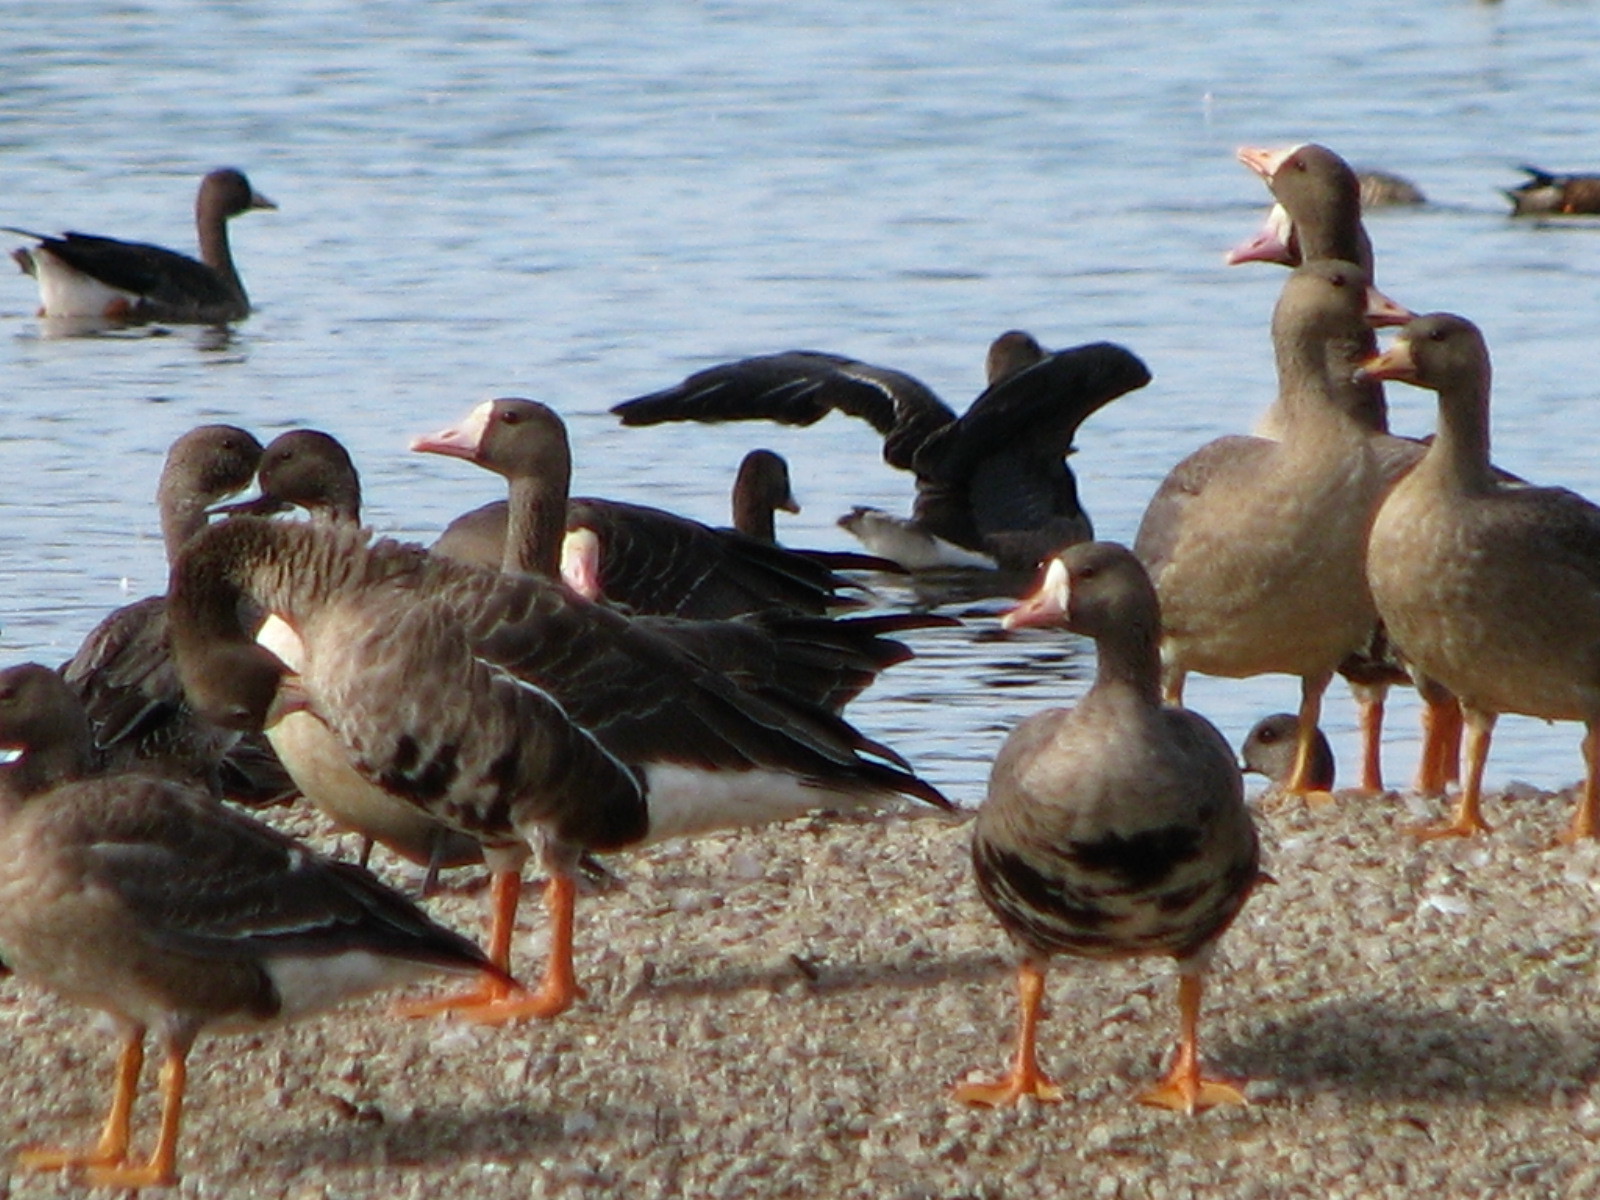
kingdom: Animalia
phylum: Chordata
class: Aves
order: Anseriformes
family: Anatidae
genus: Anser
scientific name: Anser albifrons
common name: Greater white-fronted goose
